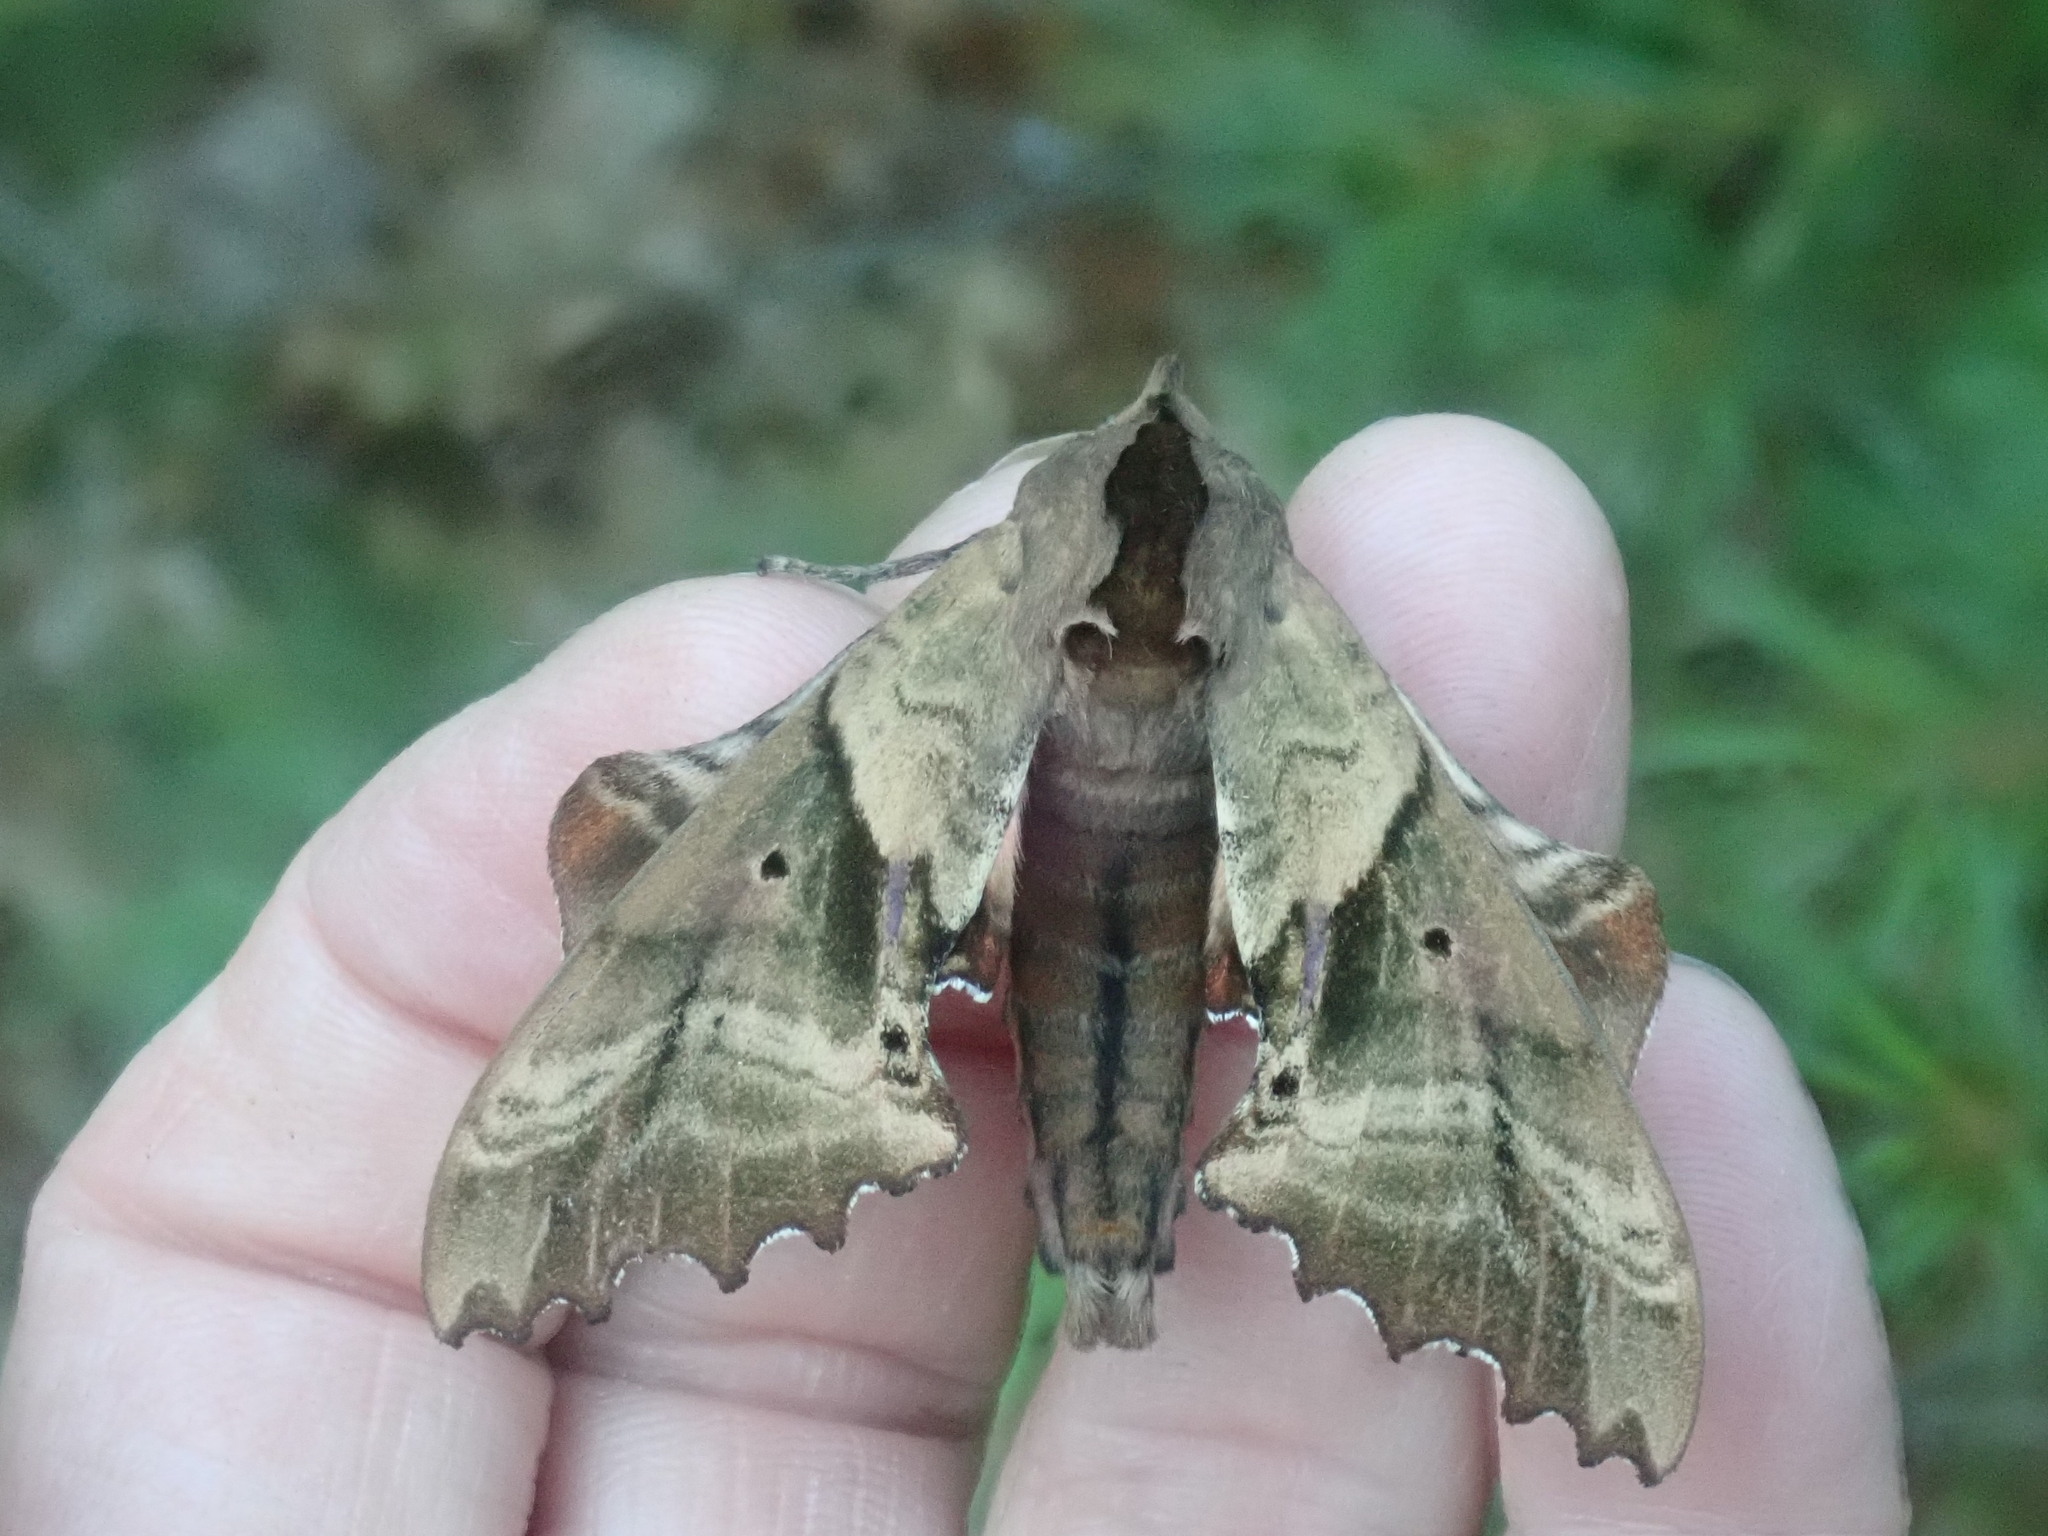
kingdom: Animalia
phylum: Arthropoda
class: Insecta
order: Lepidoptera
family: Sphingidae
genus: Paonias
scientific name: Paonias excaecata
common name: Blind-eyed sphinx
